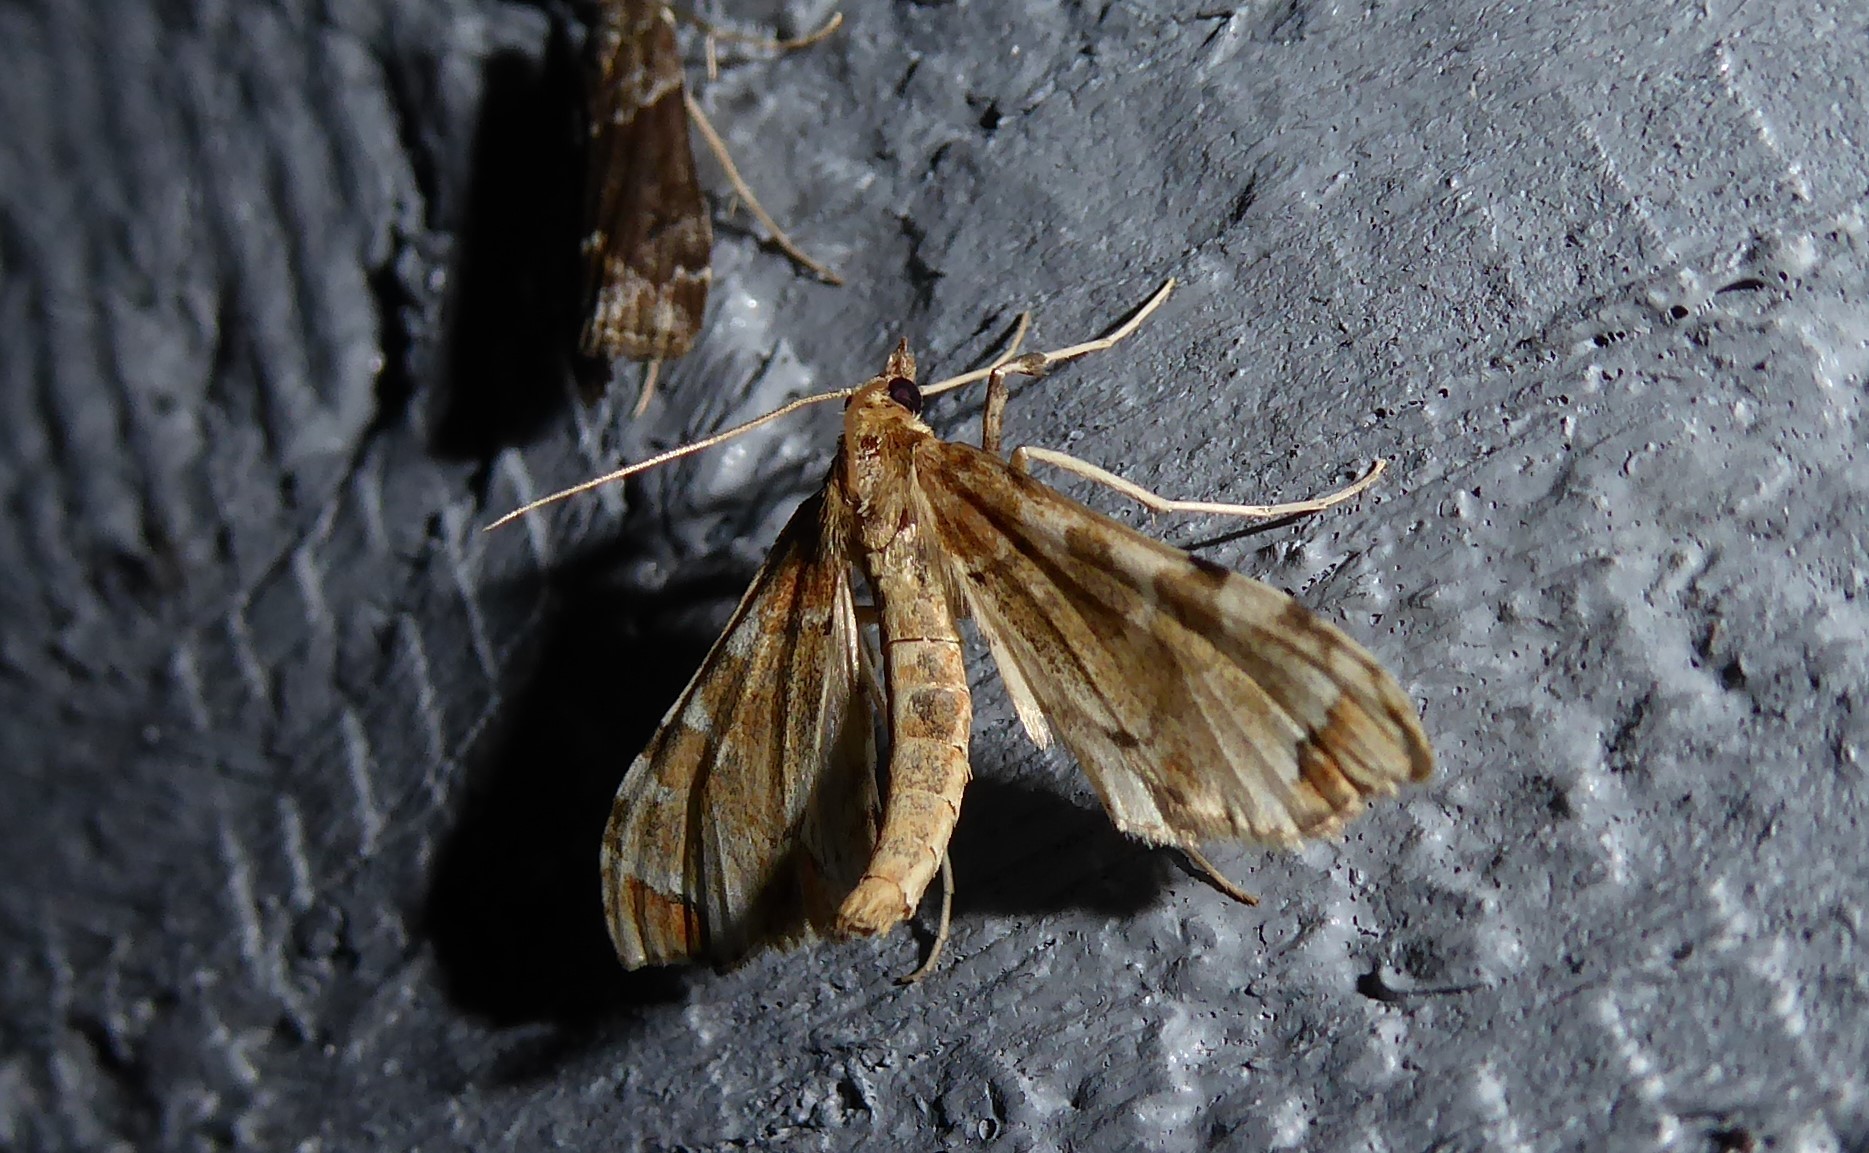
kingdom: Animalia
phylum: Arthropoda
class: Insecta
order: Lepidoptera
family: Crambidae
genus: Sceliodes
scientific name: Sceliodes cordalis
